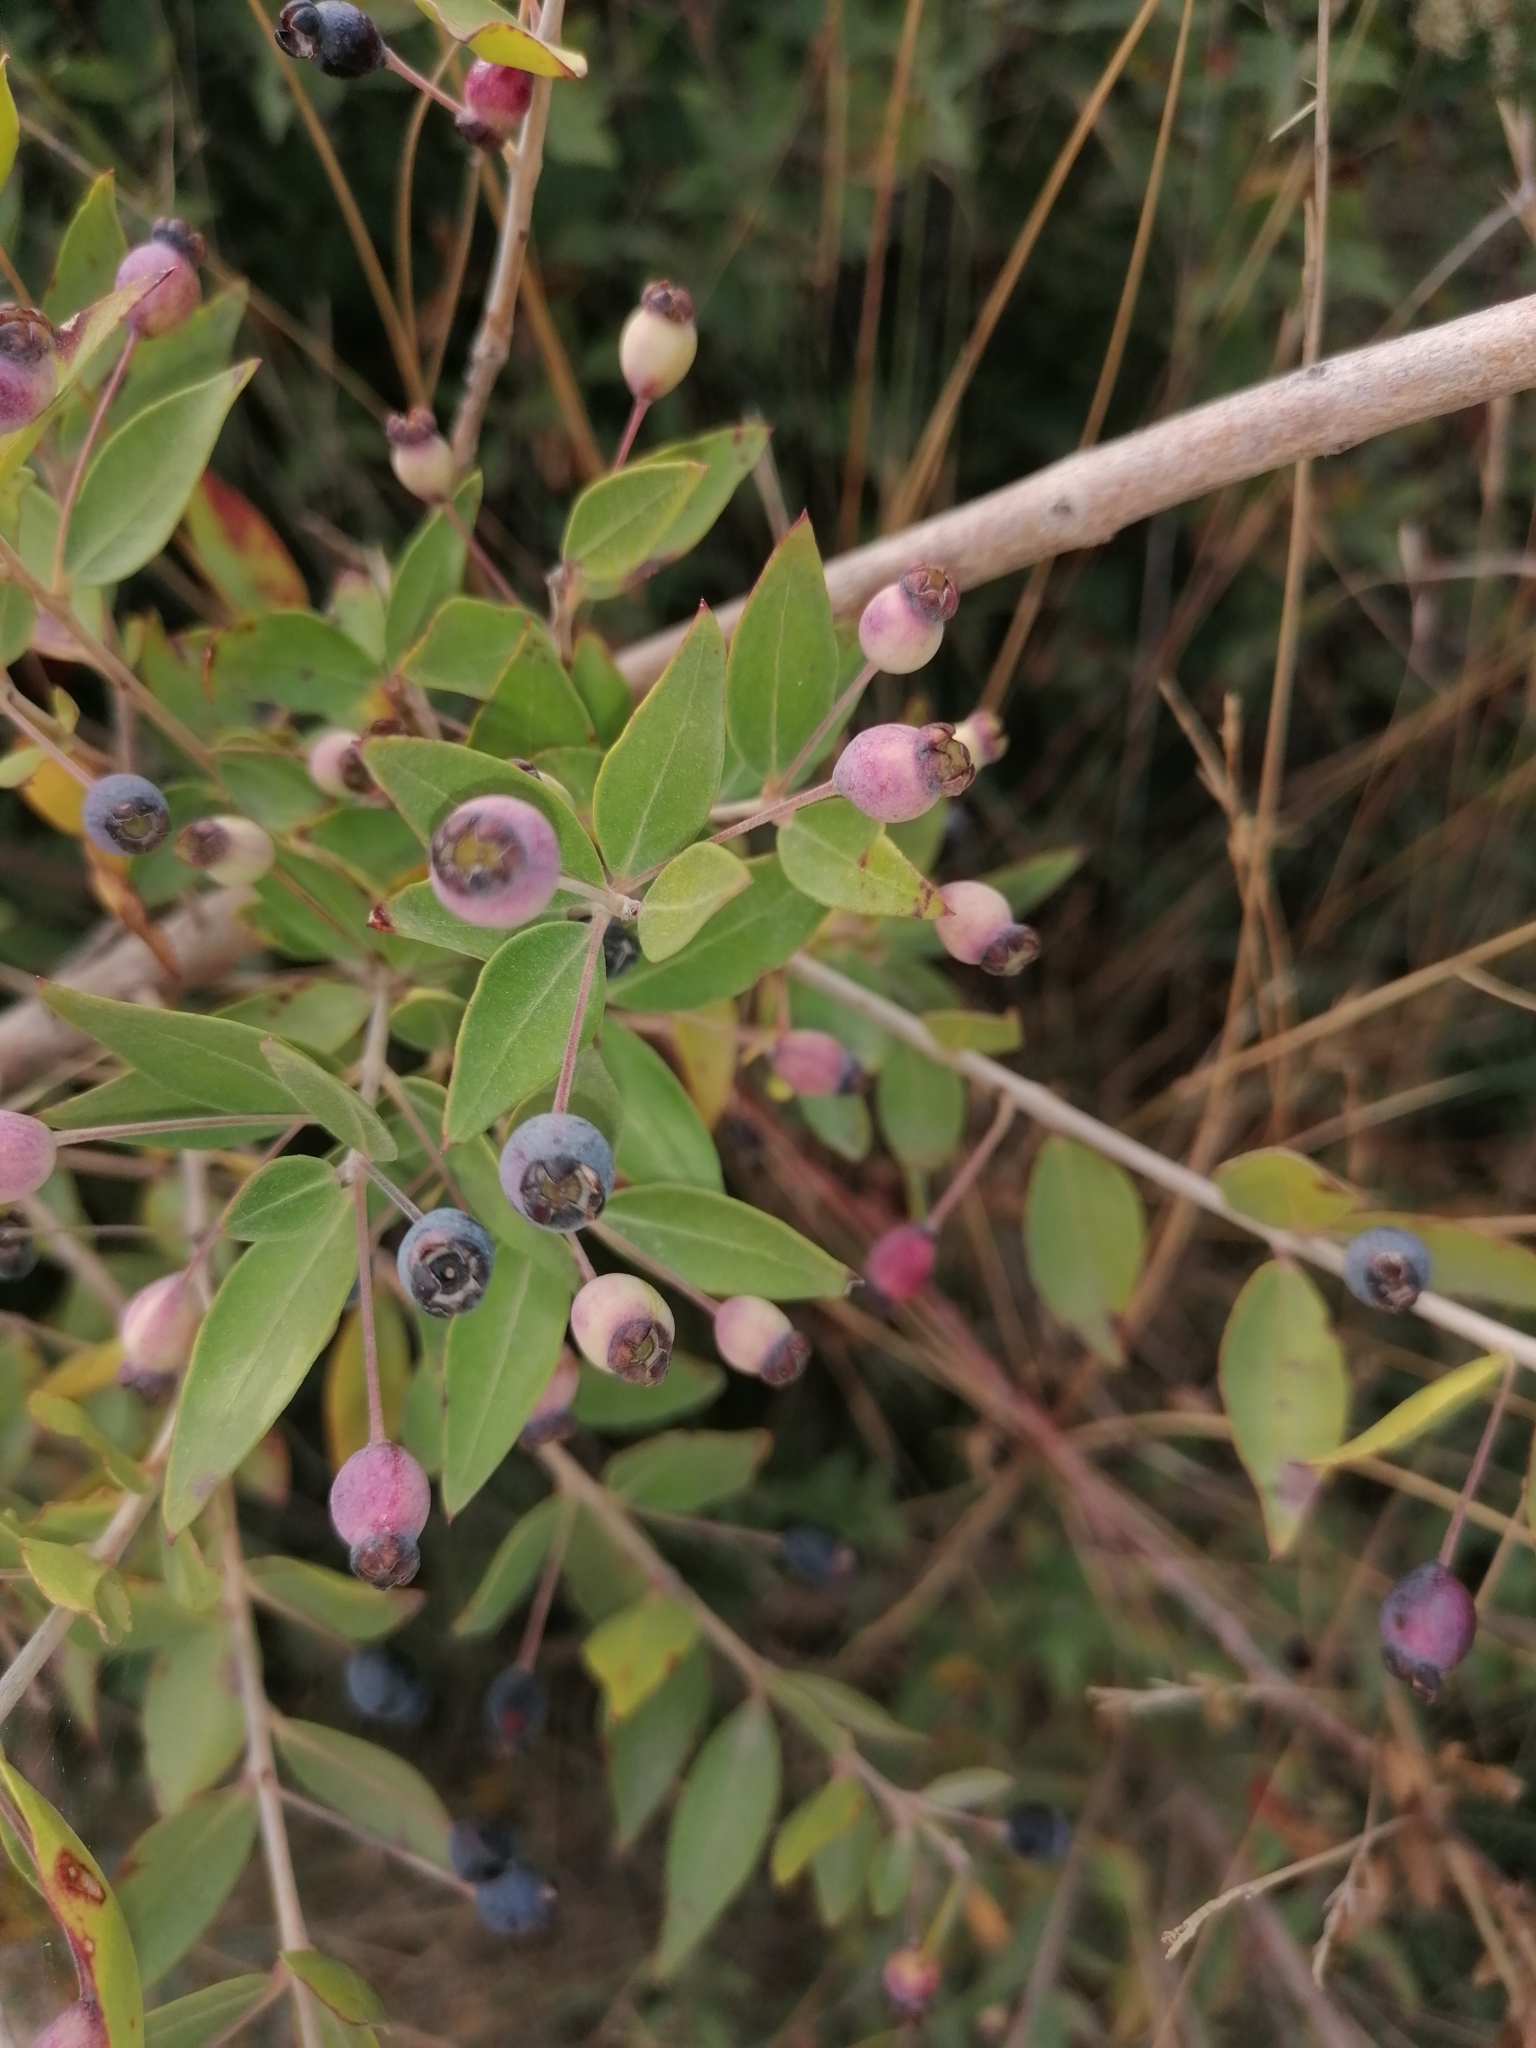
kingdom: Plantae
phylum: Tracheophyta
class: Magnoliopsida
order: Myrtales
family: Myrtaceae
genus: Myrtus
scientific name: Myrtus communis
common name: Myrtle
